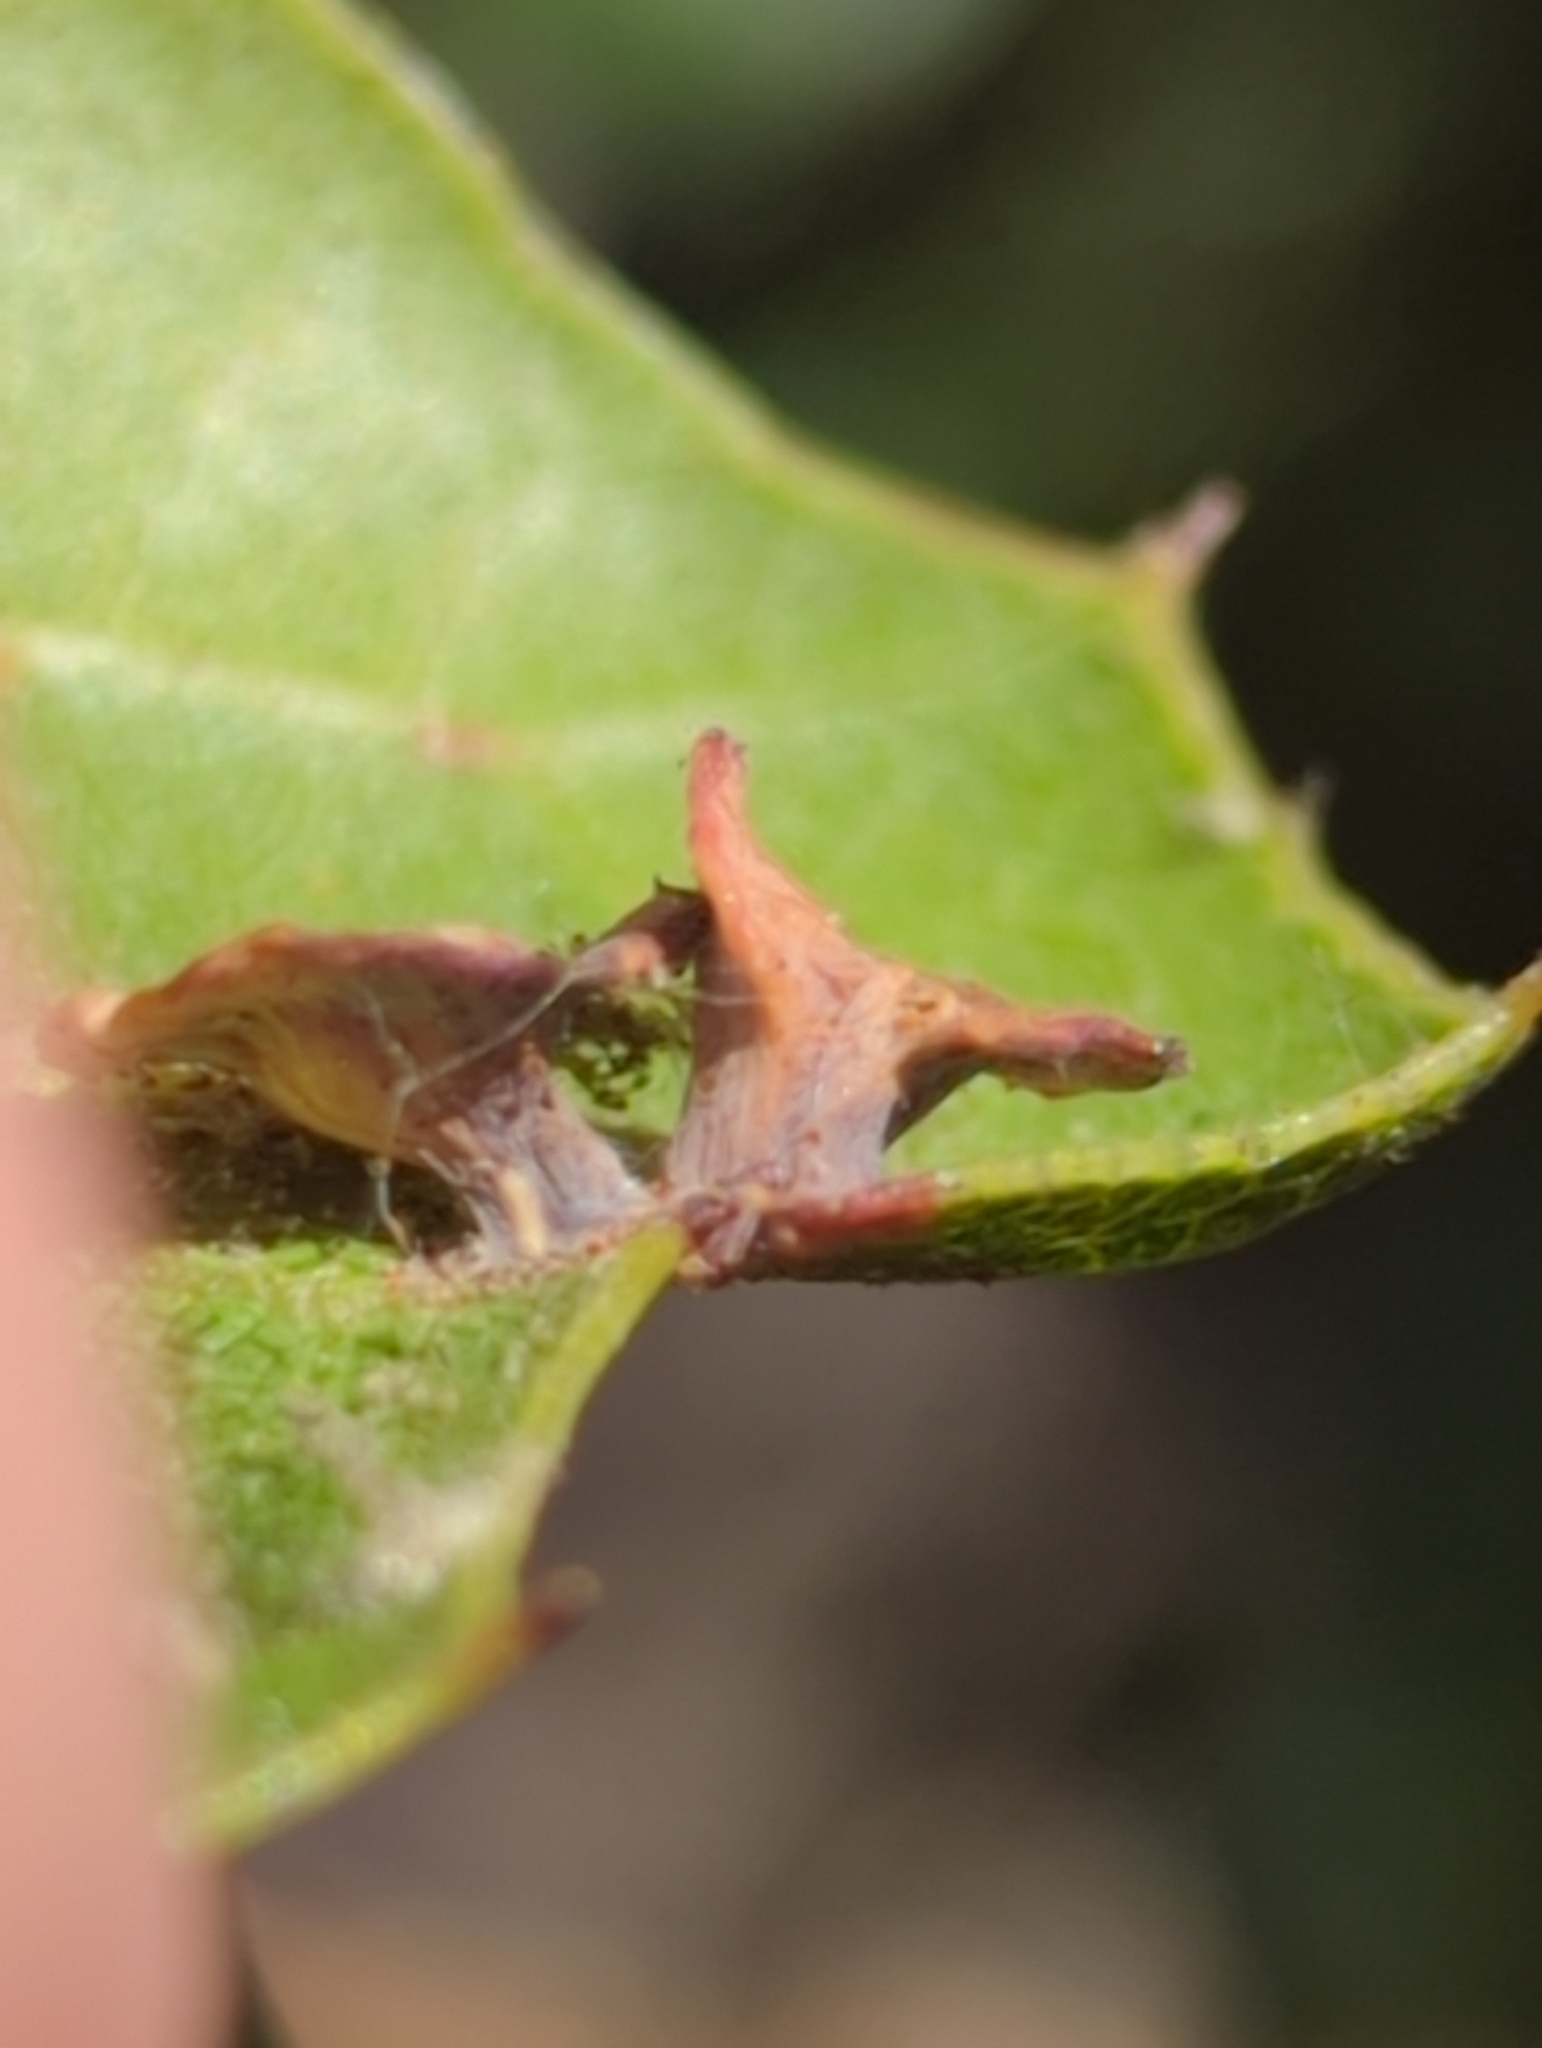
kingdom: Animalia
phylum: Arthropoda
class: Insecta
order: Hymenoptera
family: Cynipidae
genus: Amphibolips
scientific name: Amphibolips quercuspomiformis
